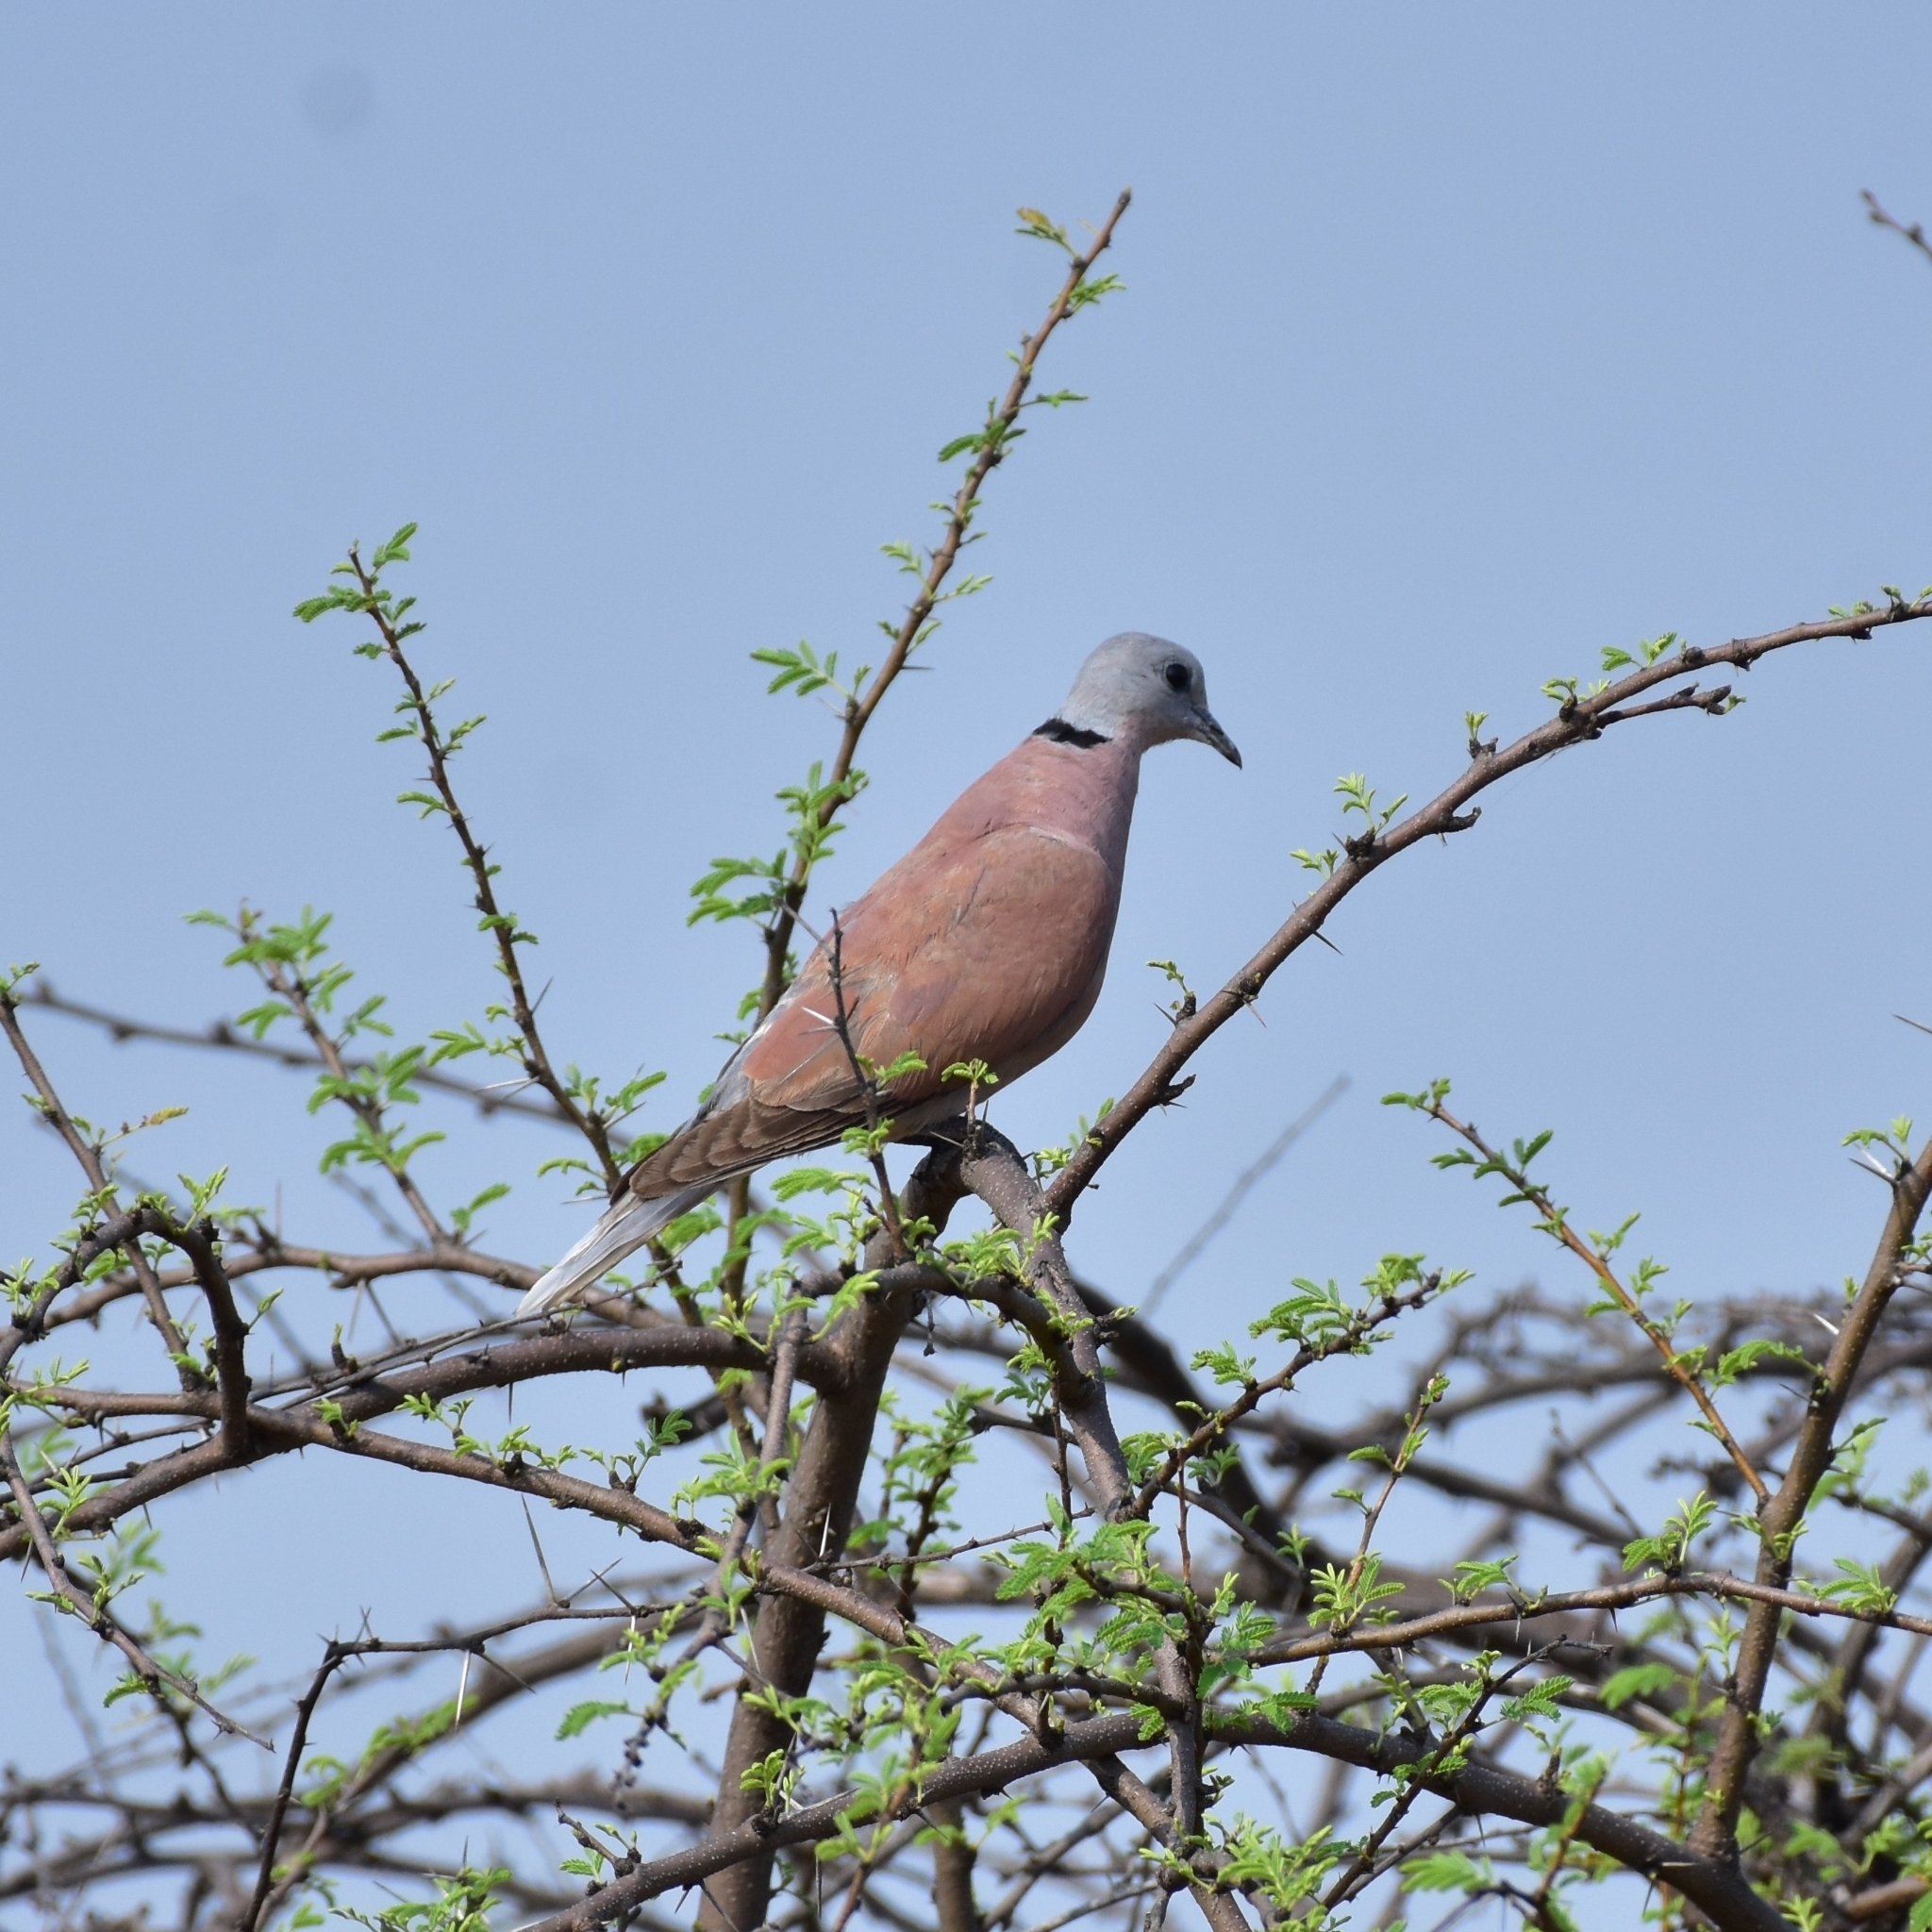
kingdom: Animalia
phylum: Chordata
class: Aves
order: Columbiformes
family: Columbidae
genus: Streptopelia
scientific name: Streptopelia tranquebarica
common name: Red turtle dove
